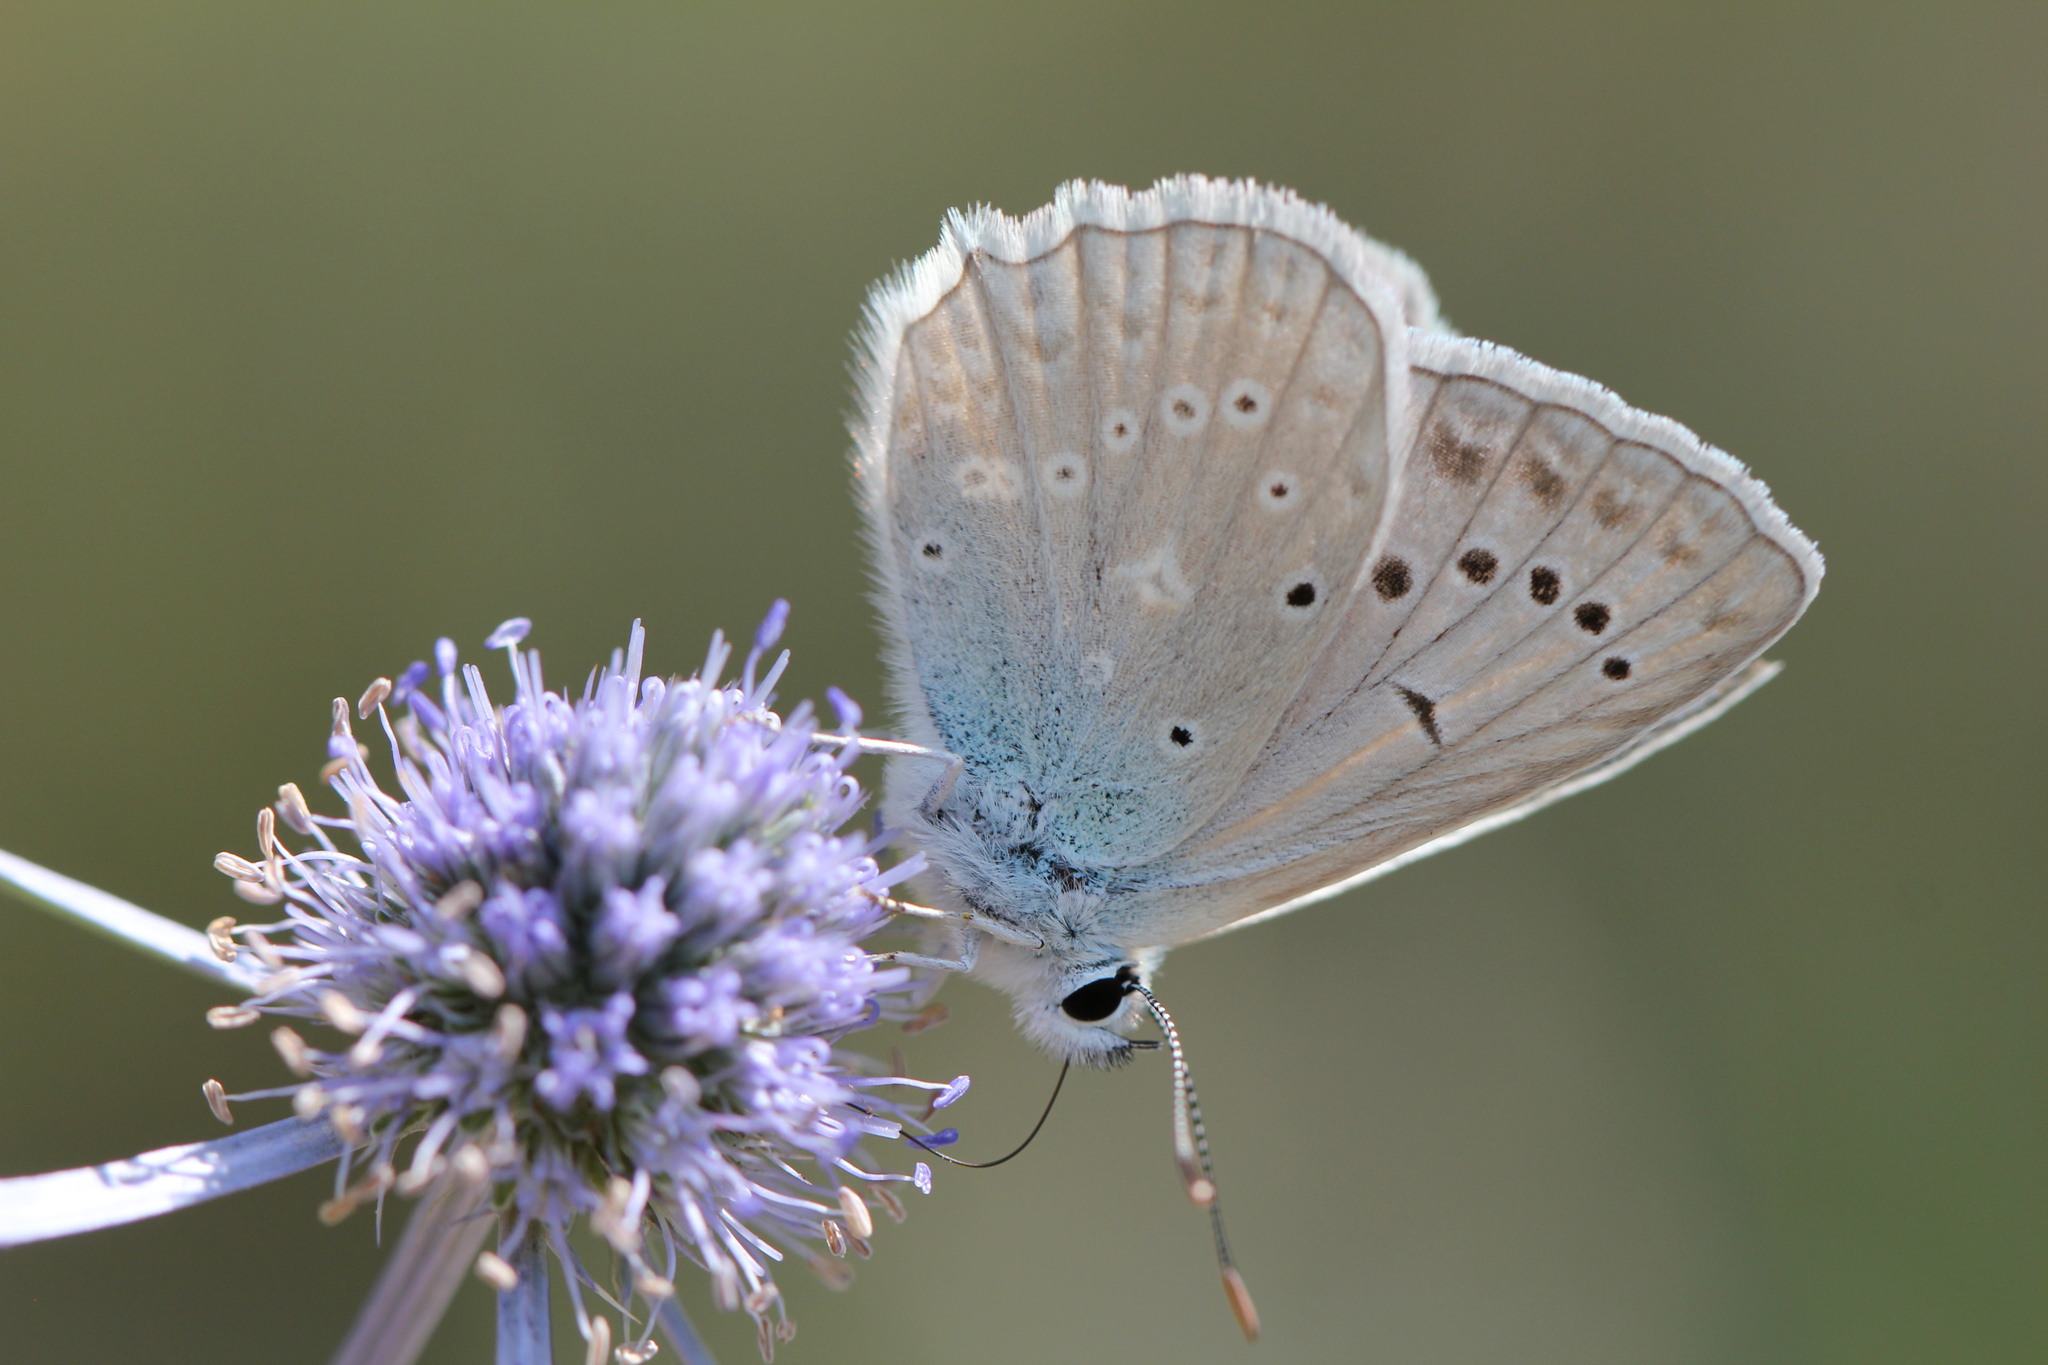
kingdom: Animalia
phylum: Arthropoda
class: Insecta
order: Lepidoptera
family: Lycaenidae
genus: Polyommatus
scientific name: Polyommatus daphnis
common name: Meleager's blue
